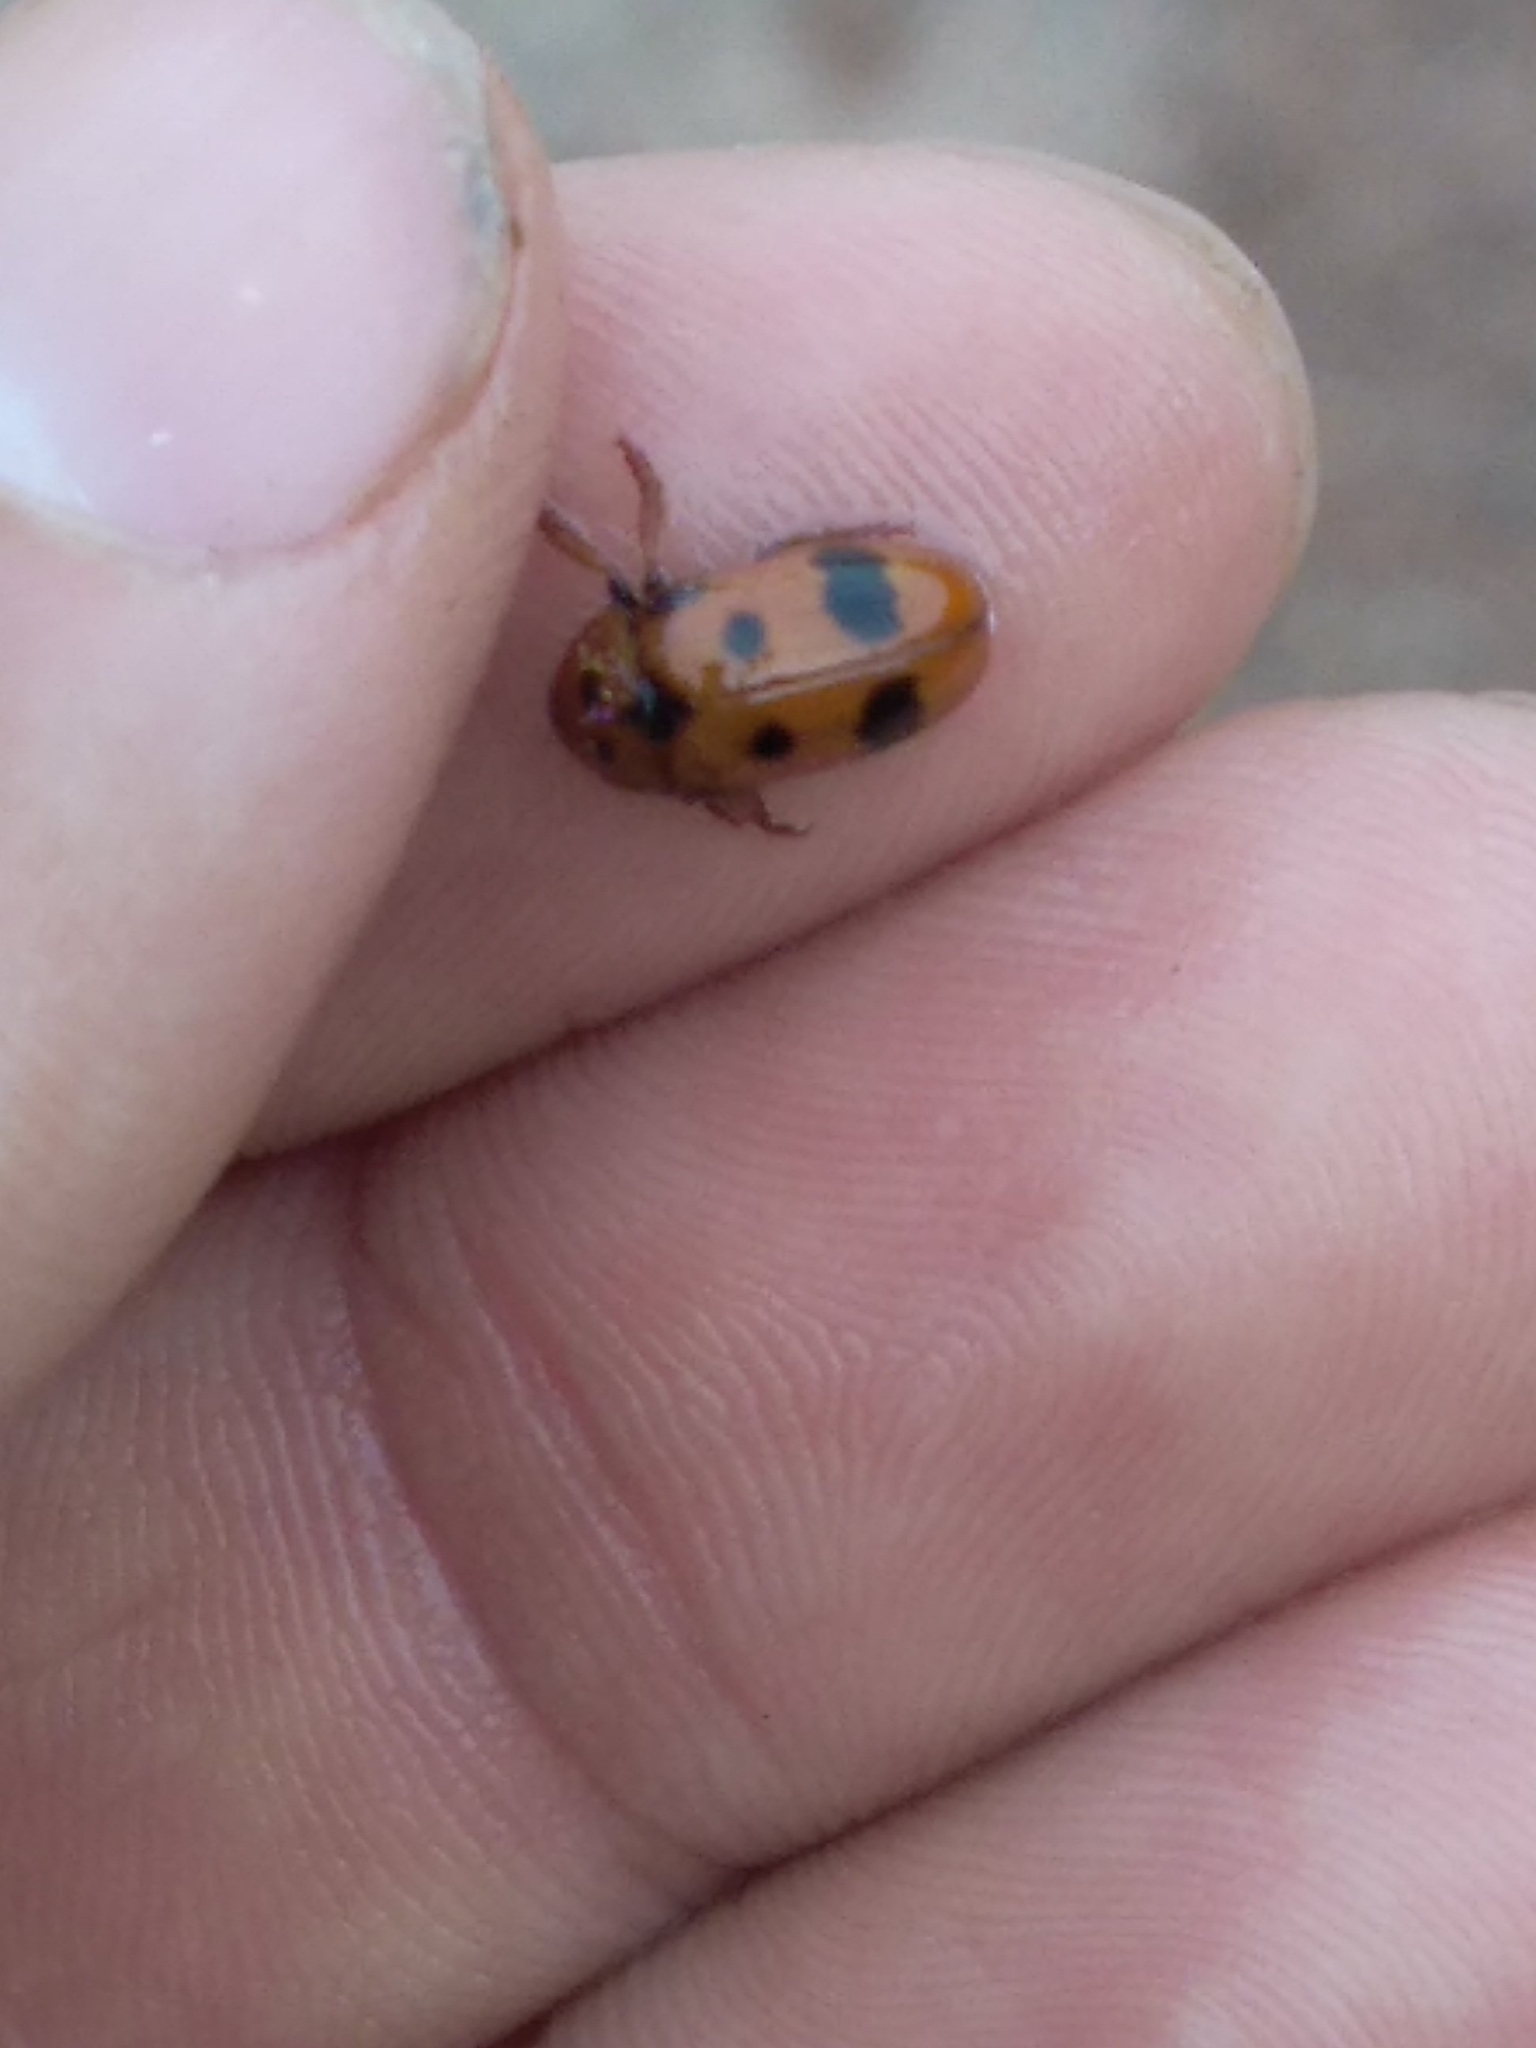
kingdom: Animalia
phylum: Arthropoda
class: Insecta
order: Coleoptera
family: Chrysomelidae
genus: Clytra
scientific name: Clytra atraphaxidis
